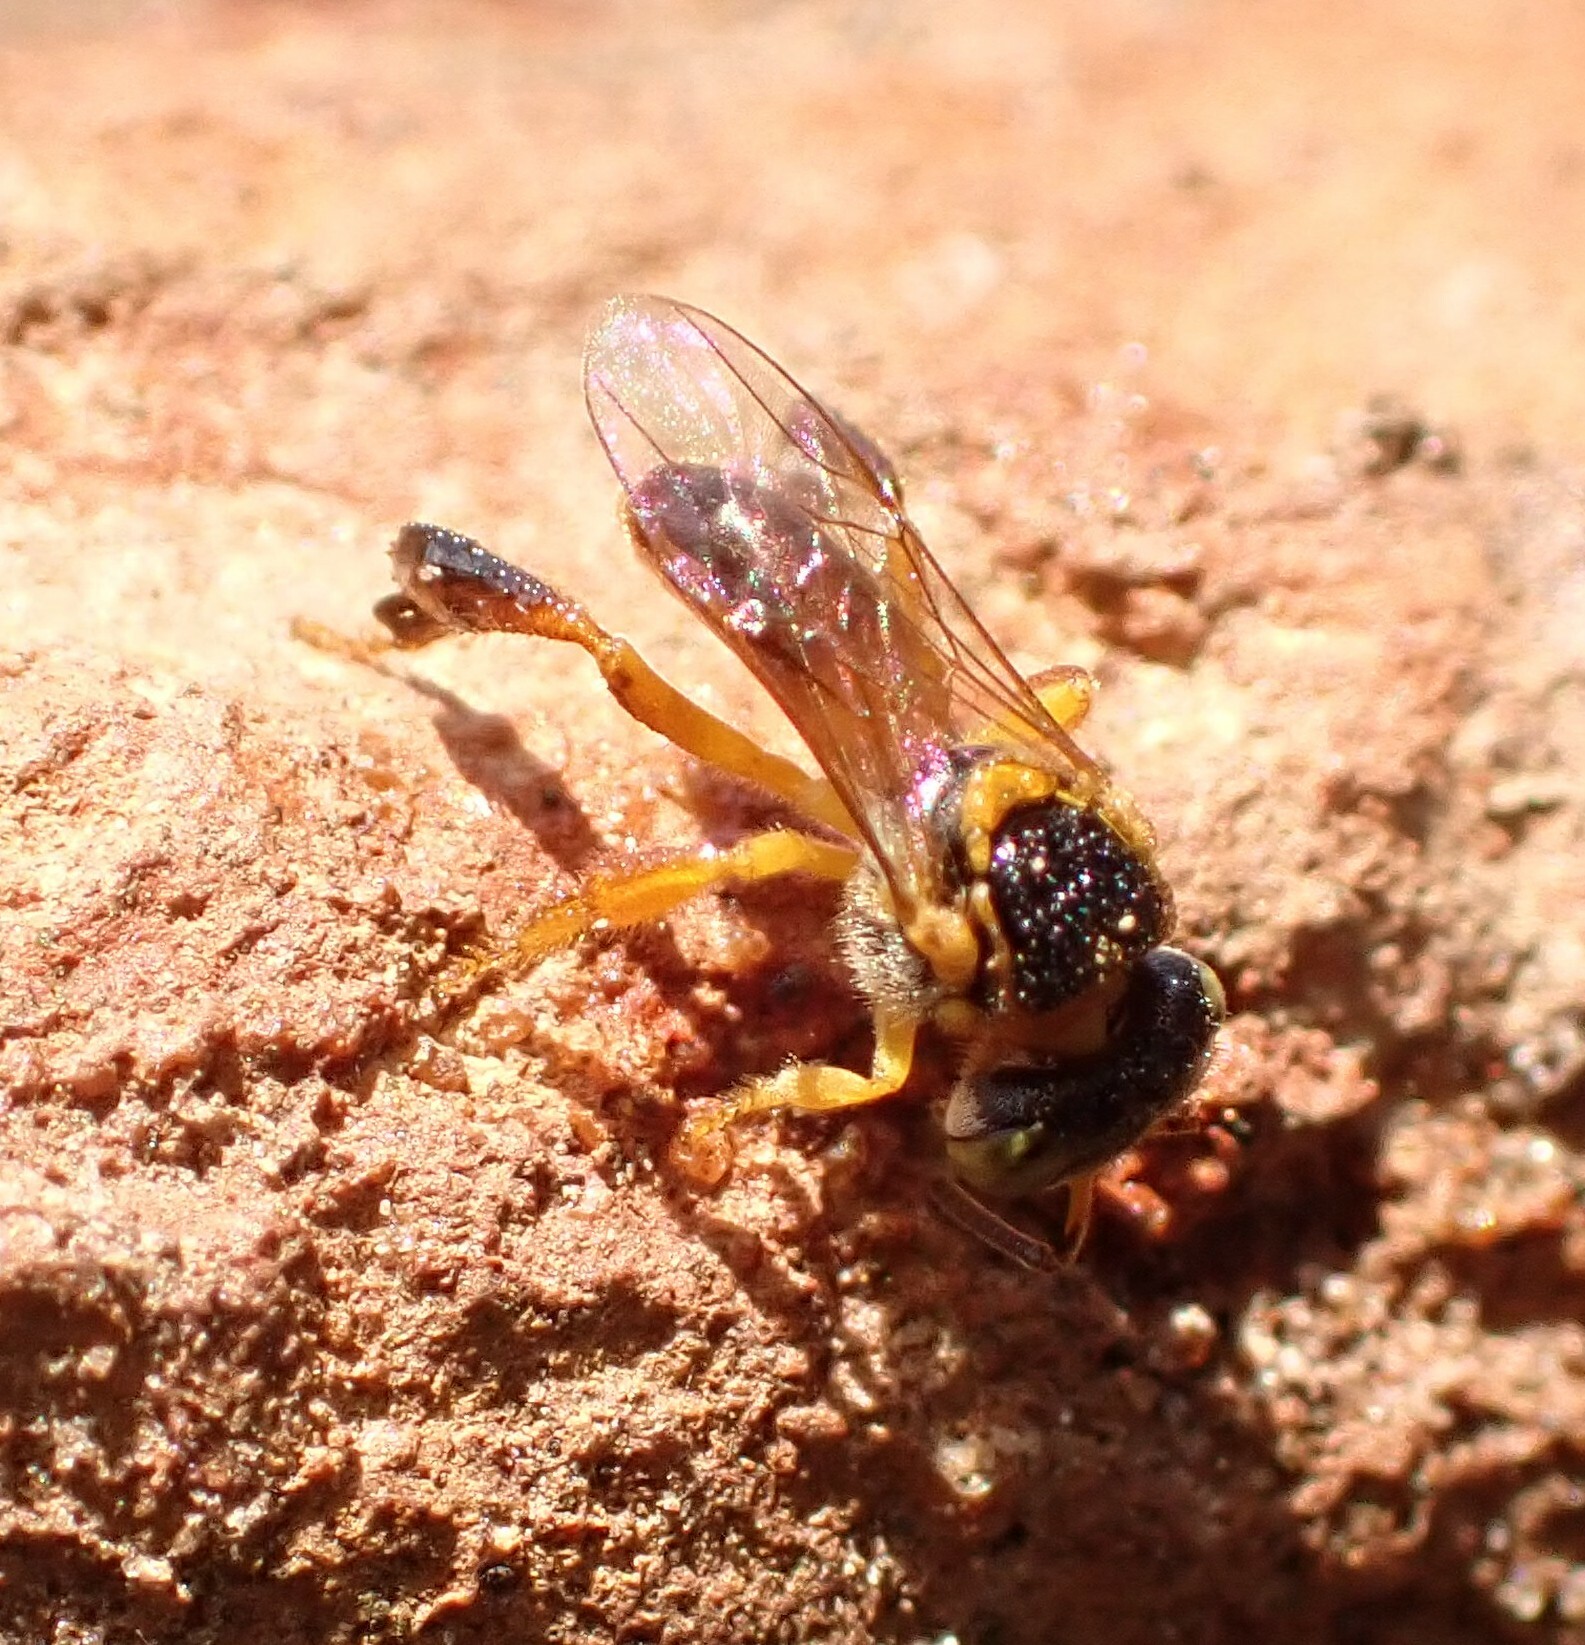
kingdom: Animalia
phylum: Arthropoda
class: Insecta
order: Hymenoptera
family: Apidae
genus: Tetragonisca
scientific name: Tetragonisca angustula
